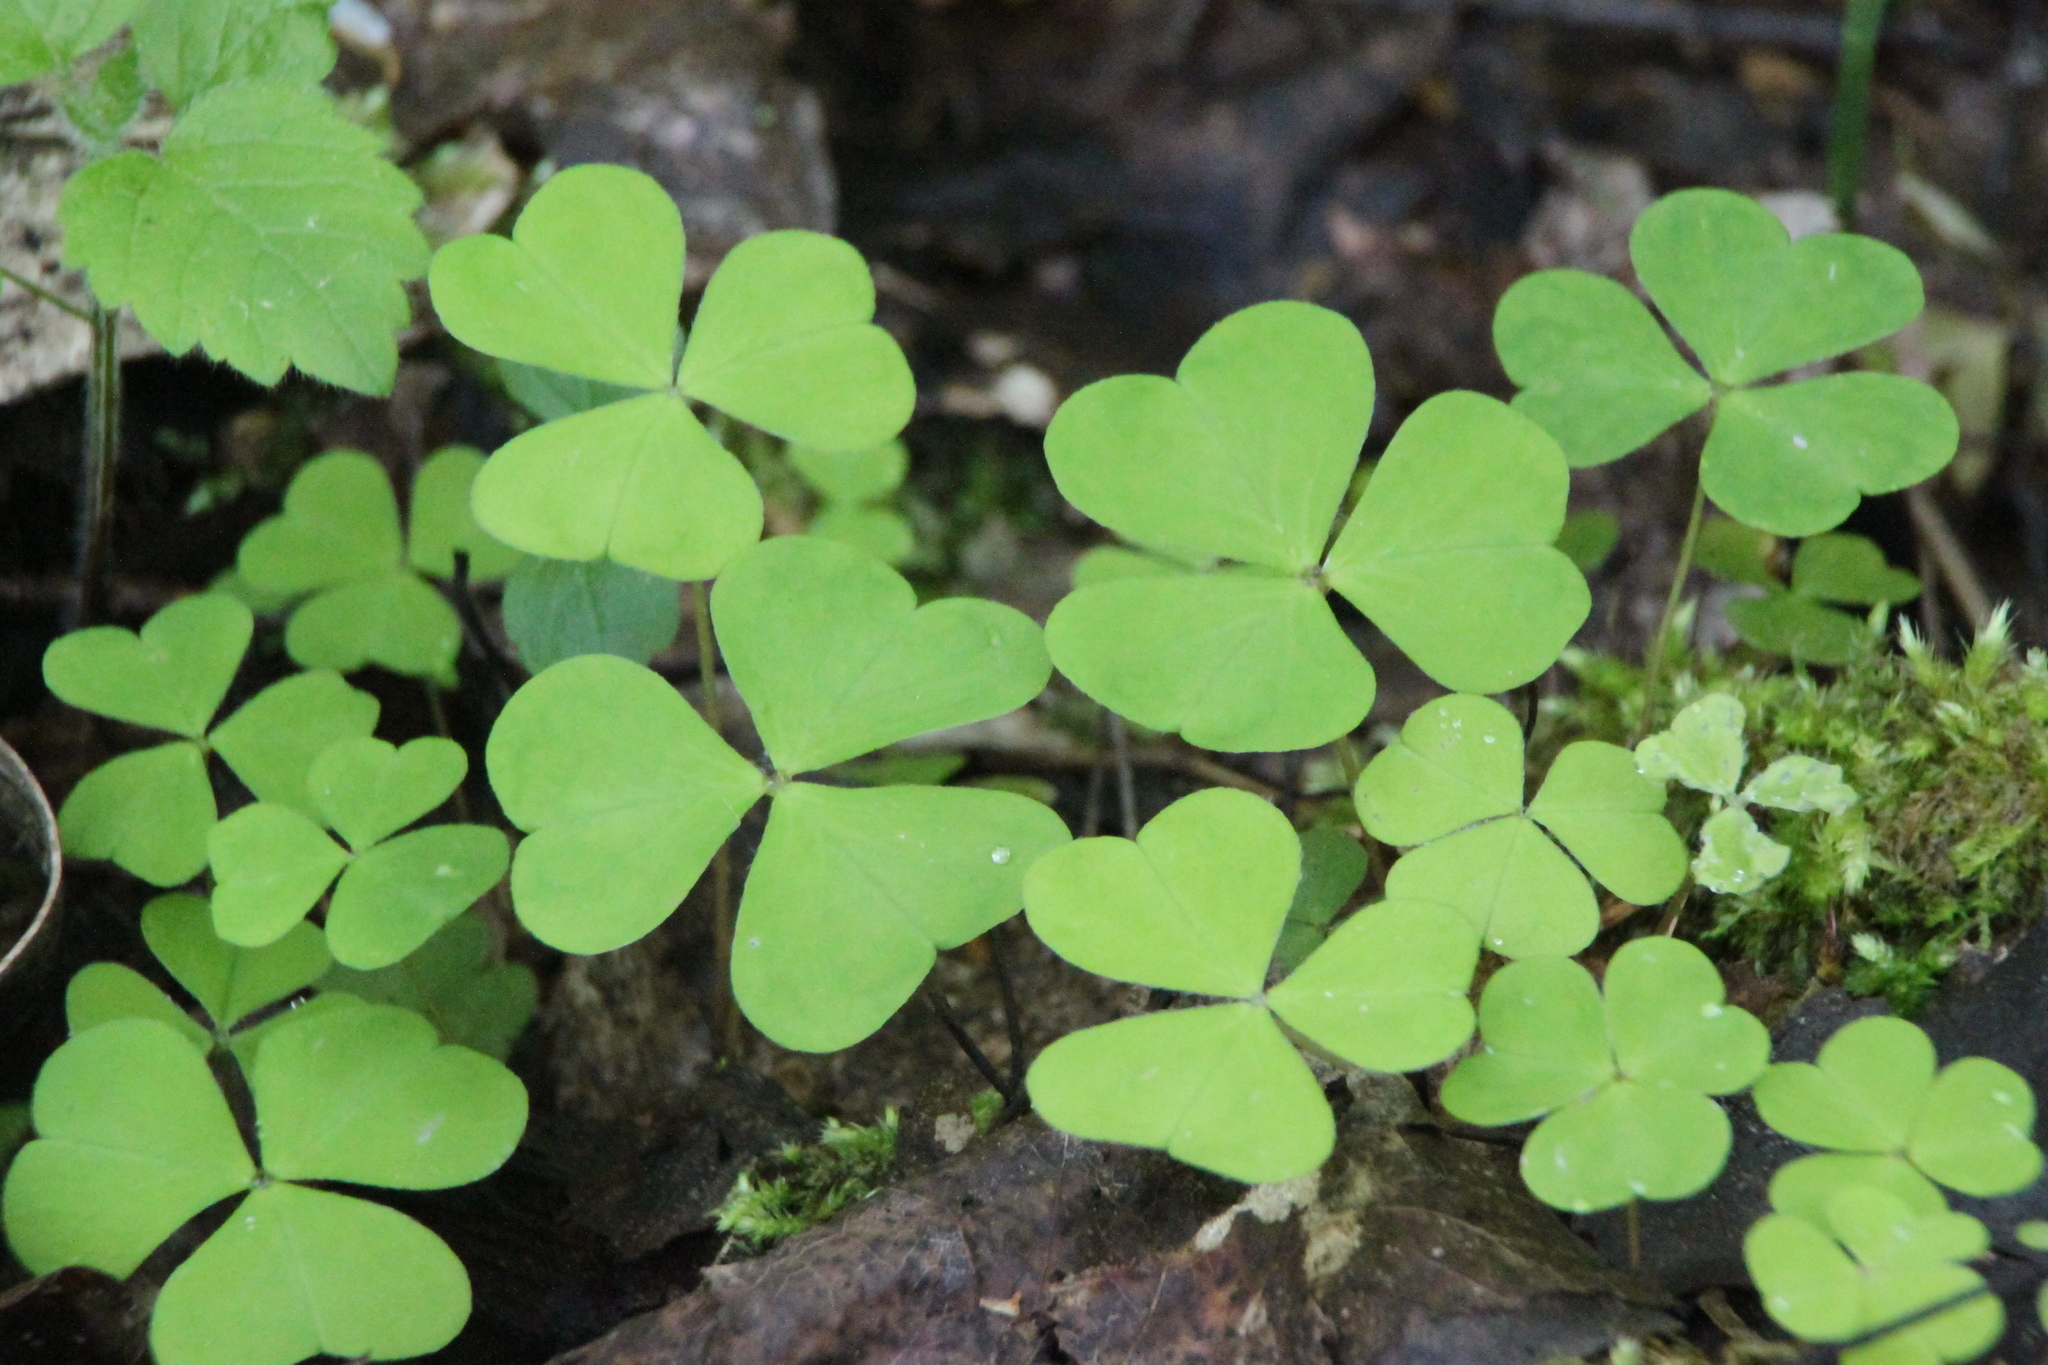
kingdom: Plantae
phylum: Tracheophyta
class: Magnoliopsida
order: Oxalidales
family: Oxalidaceae
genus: Oxalis
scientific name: Oxalis acetosella
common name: Wood-sorrel
